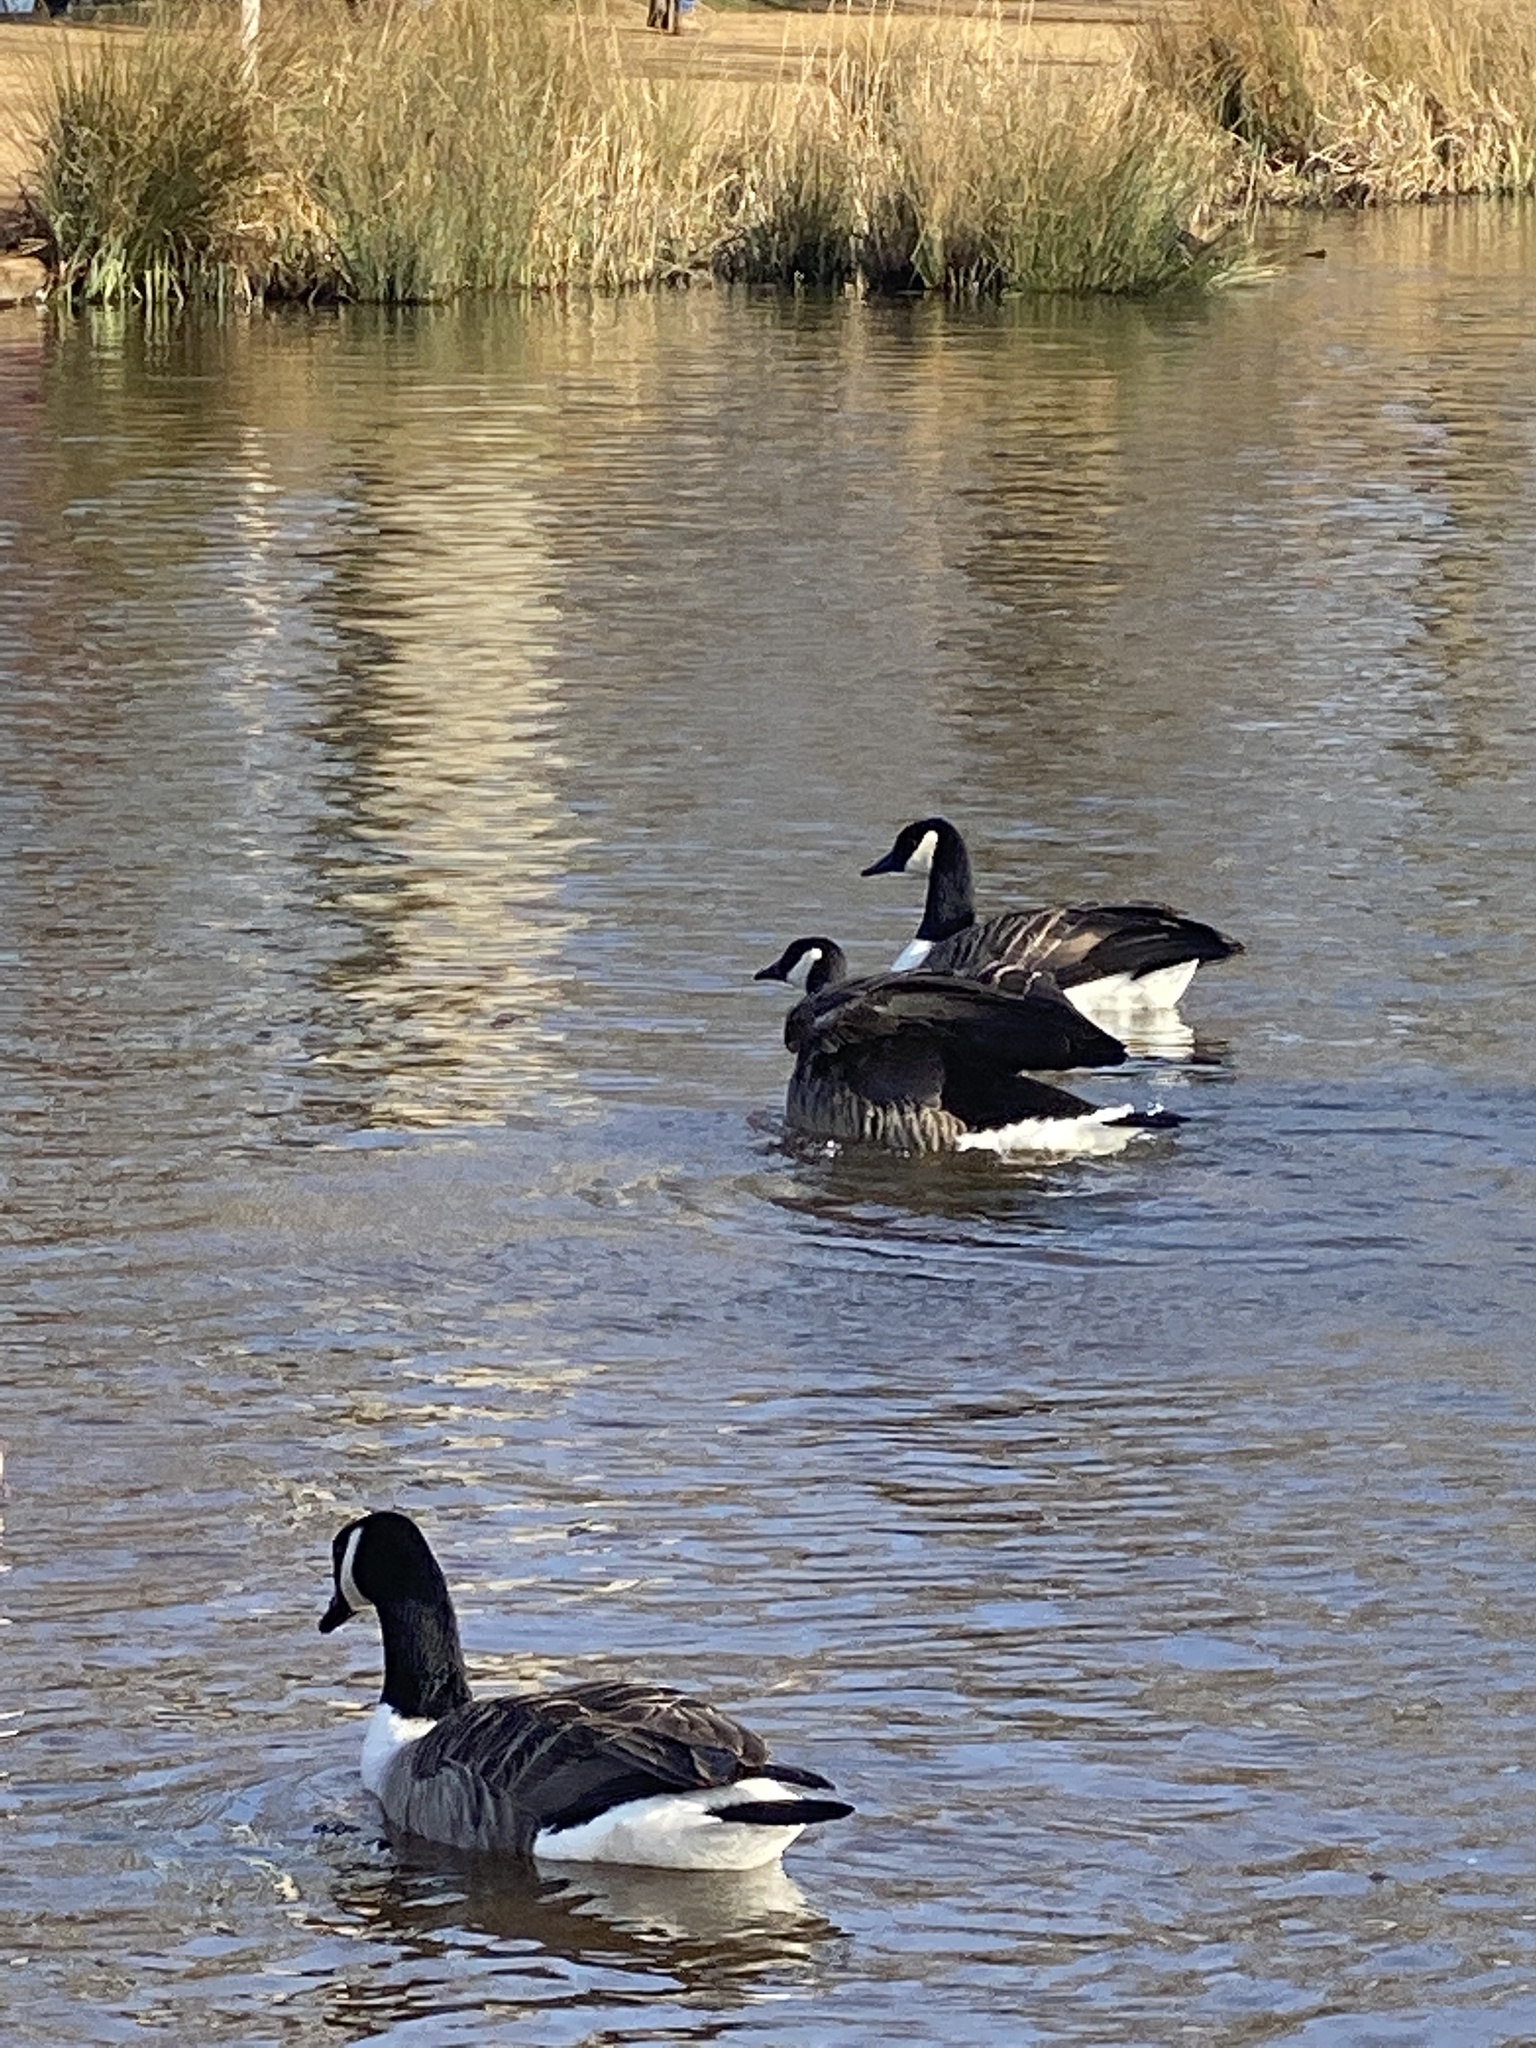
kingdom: Animalia
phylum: Chordata
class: Aves
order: Anseriformes
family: Anatidae
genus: Branta
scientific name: Branta canadensis
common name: Canada goose
